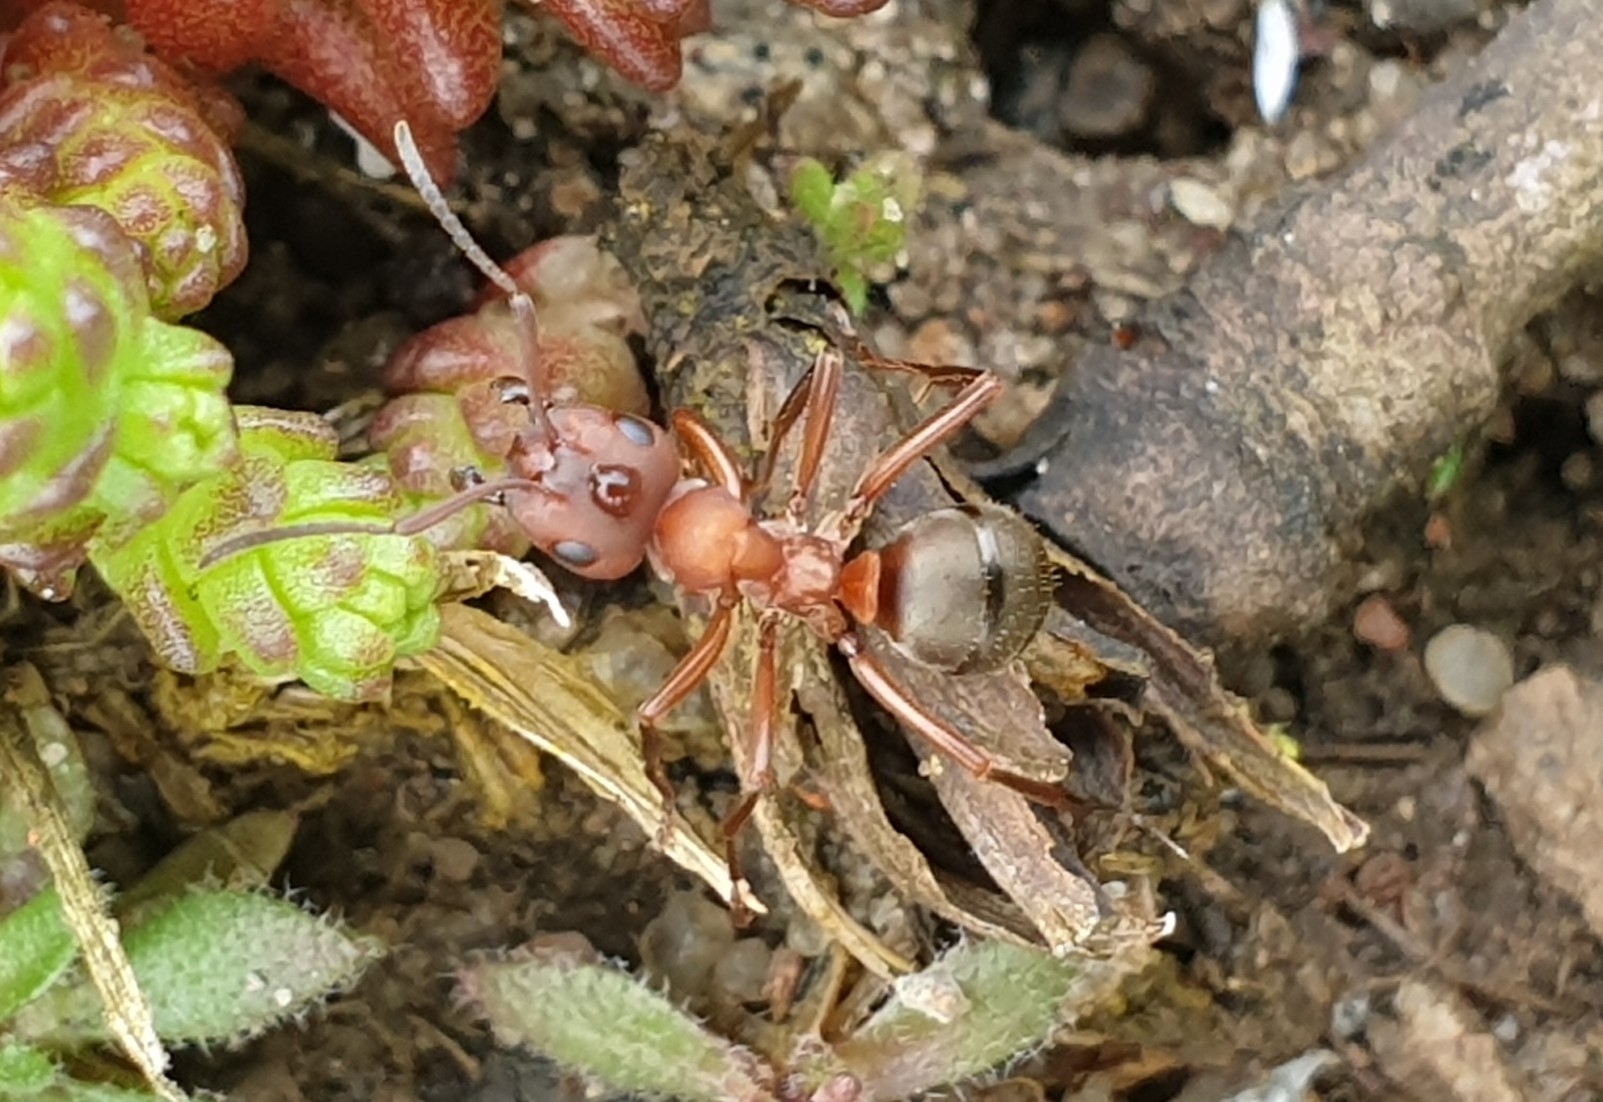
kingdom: Animalia
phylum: Arthropoda
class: Insecta
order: Hymenoptera
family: Formicidae
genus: Formica
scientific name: Formica sanguinea
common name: Blood-red ant
